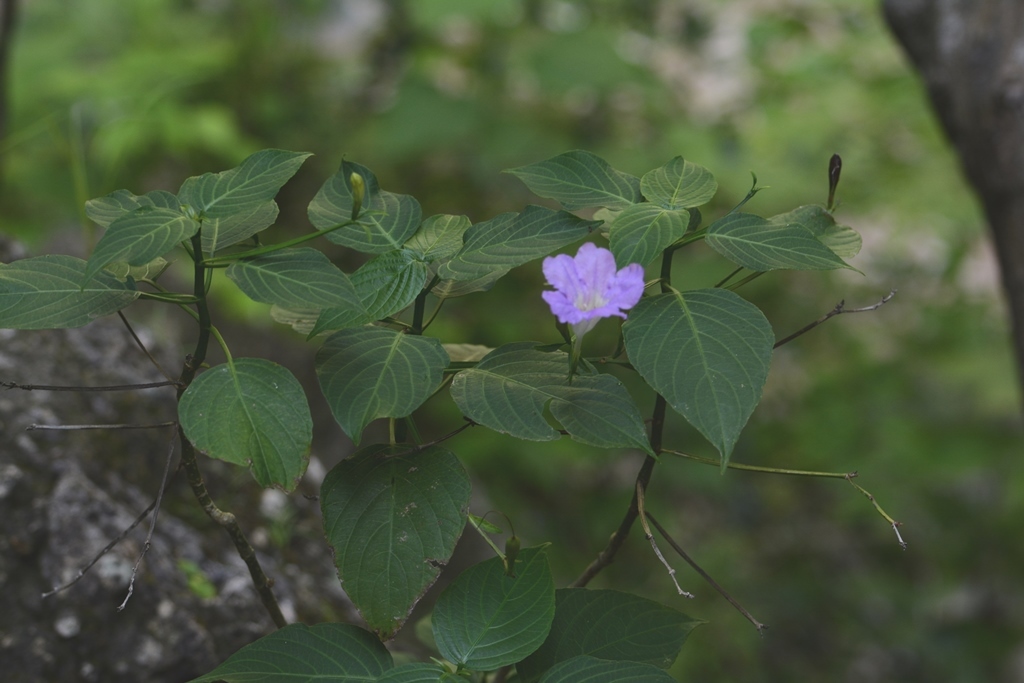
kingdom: Plantae
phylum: Tracheophyta
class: Magnoliopsida
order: Lamiales
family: Acanthaceae
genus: Ruellia
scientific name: Ruellia breedlovei
